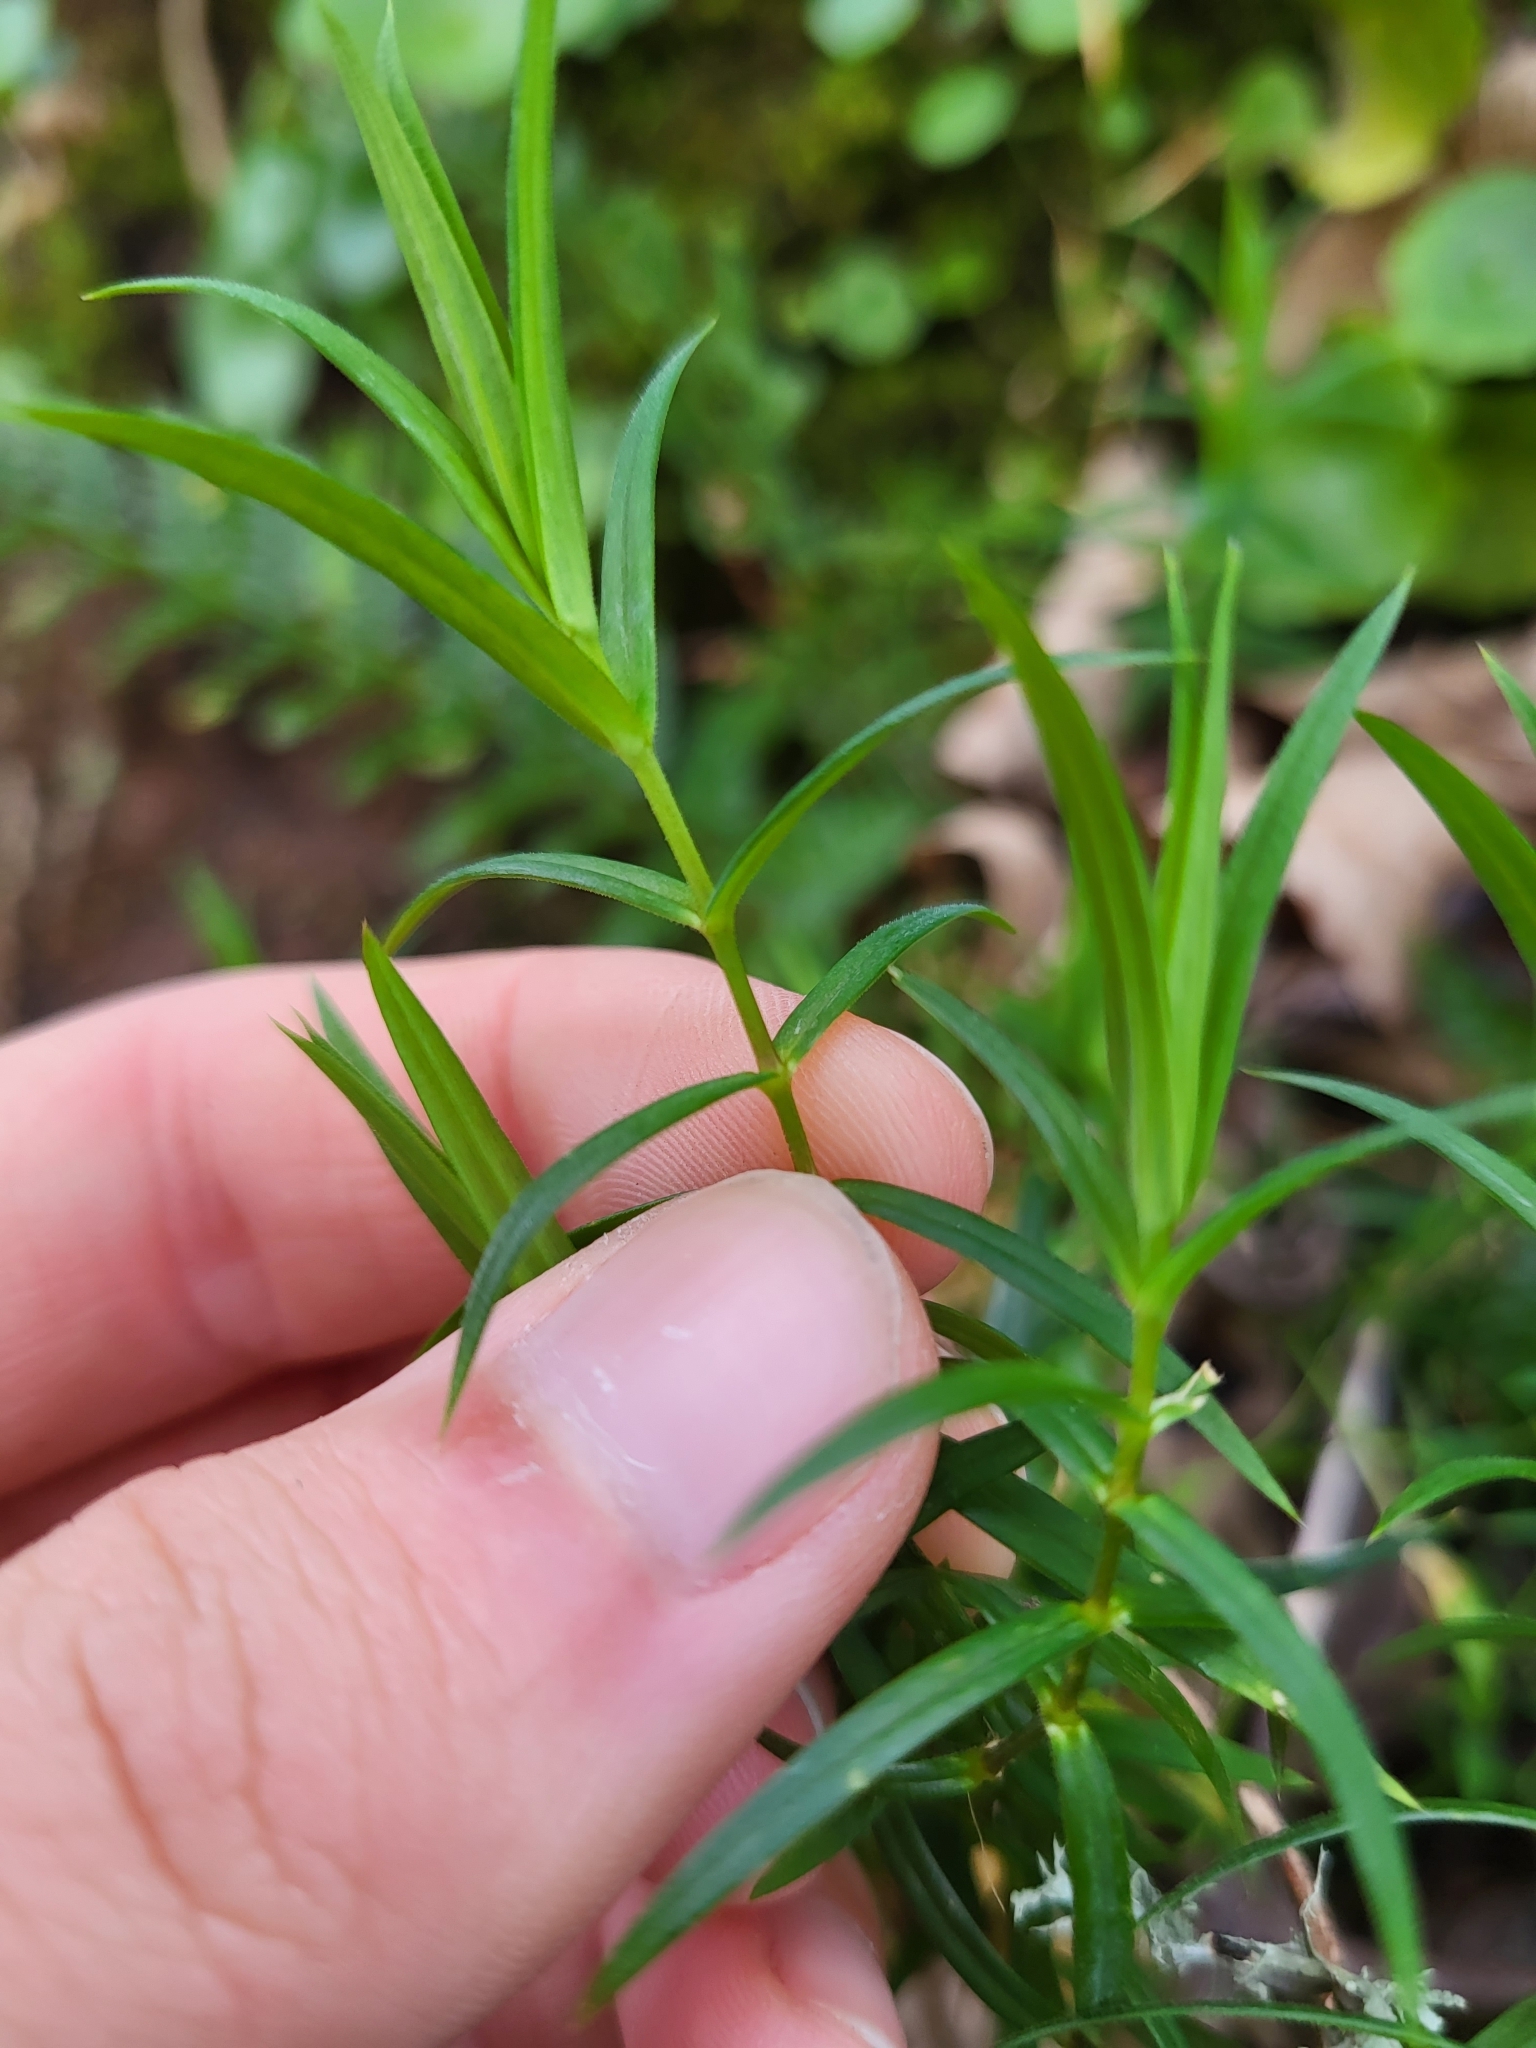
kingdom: Plantae
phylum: Tracheophyta
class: Magnoliopsida
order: Caryophyllales
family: Caryophyllaceae
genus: Rabelera
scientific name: Rabelera holostea
